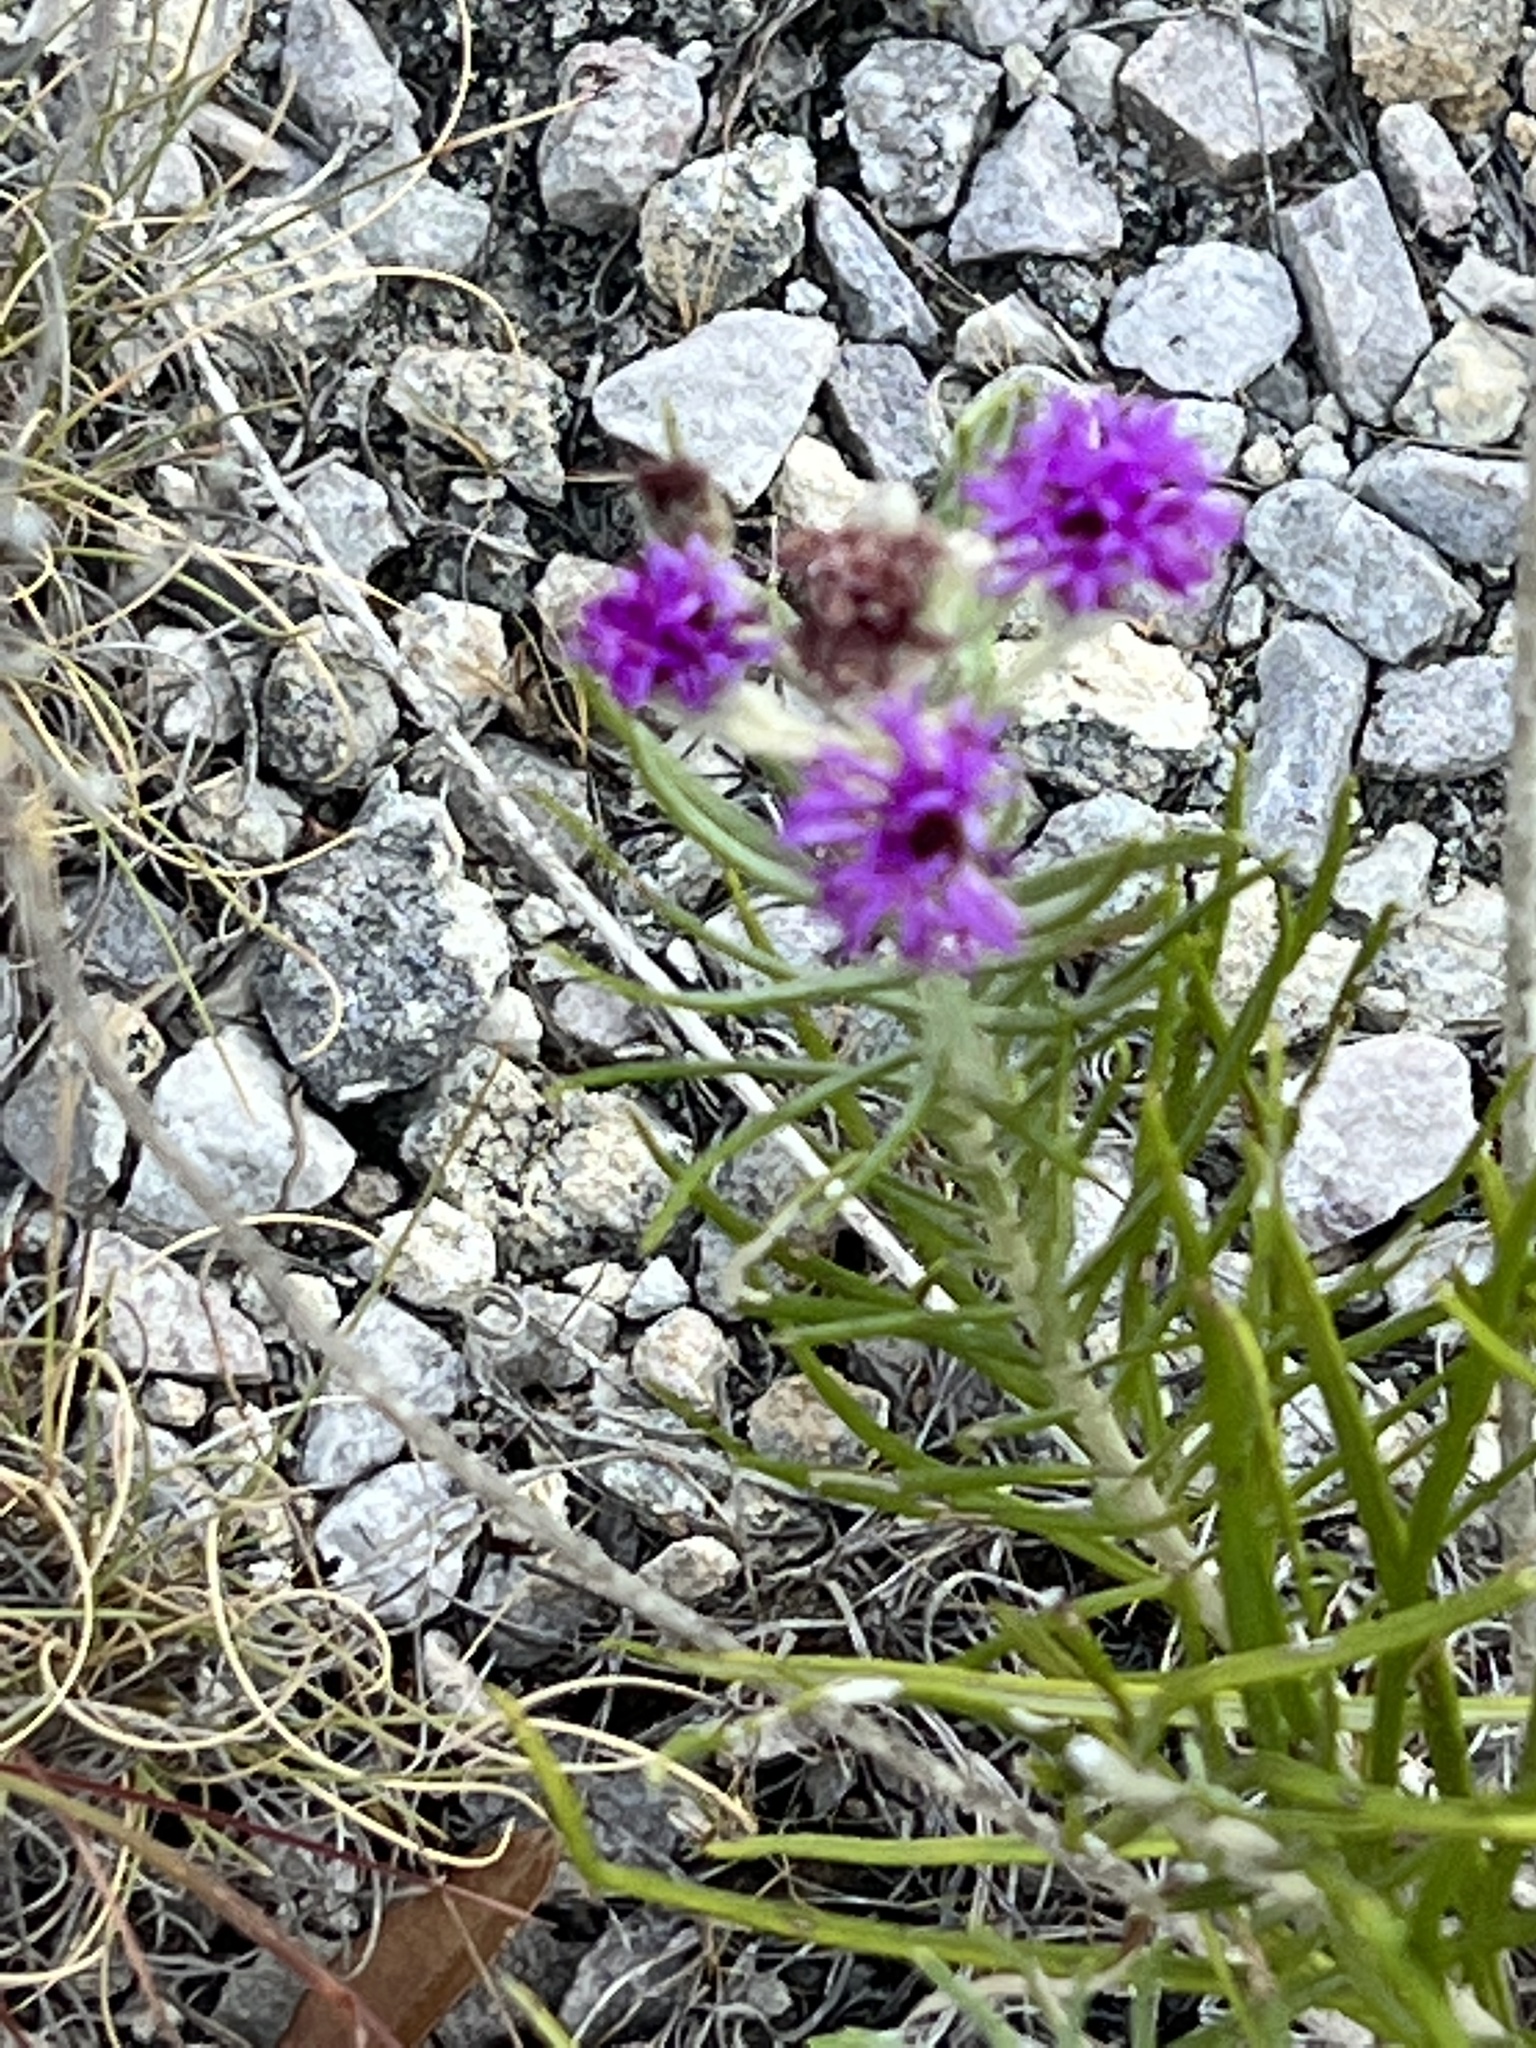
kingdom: Plantae
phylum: Tracheophyta
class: Magnoliopsida
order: Asterales
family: Asteraceae
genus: Vernonia
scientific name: Vernonia lindheimeri
